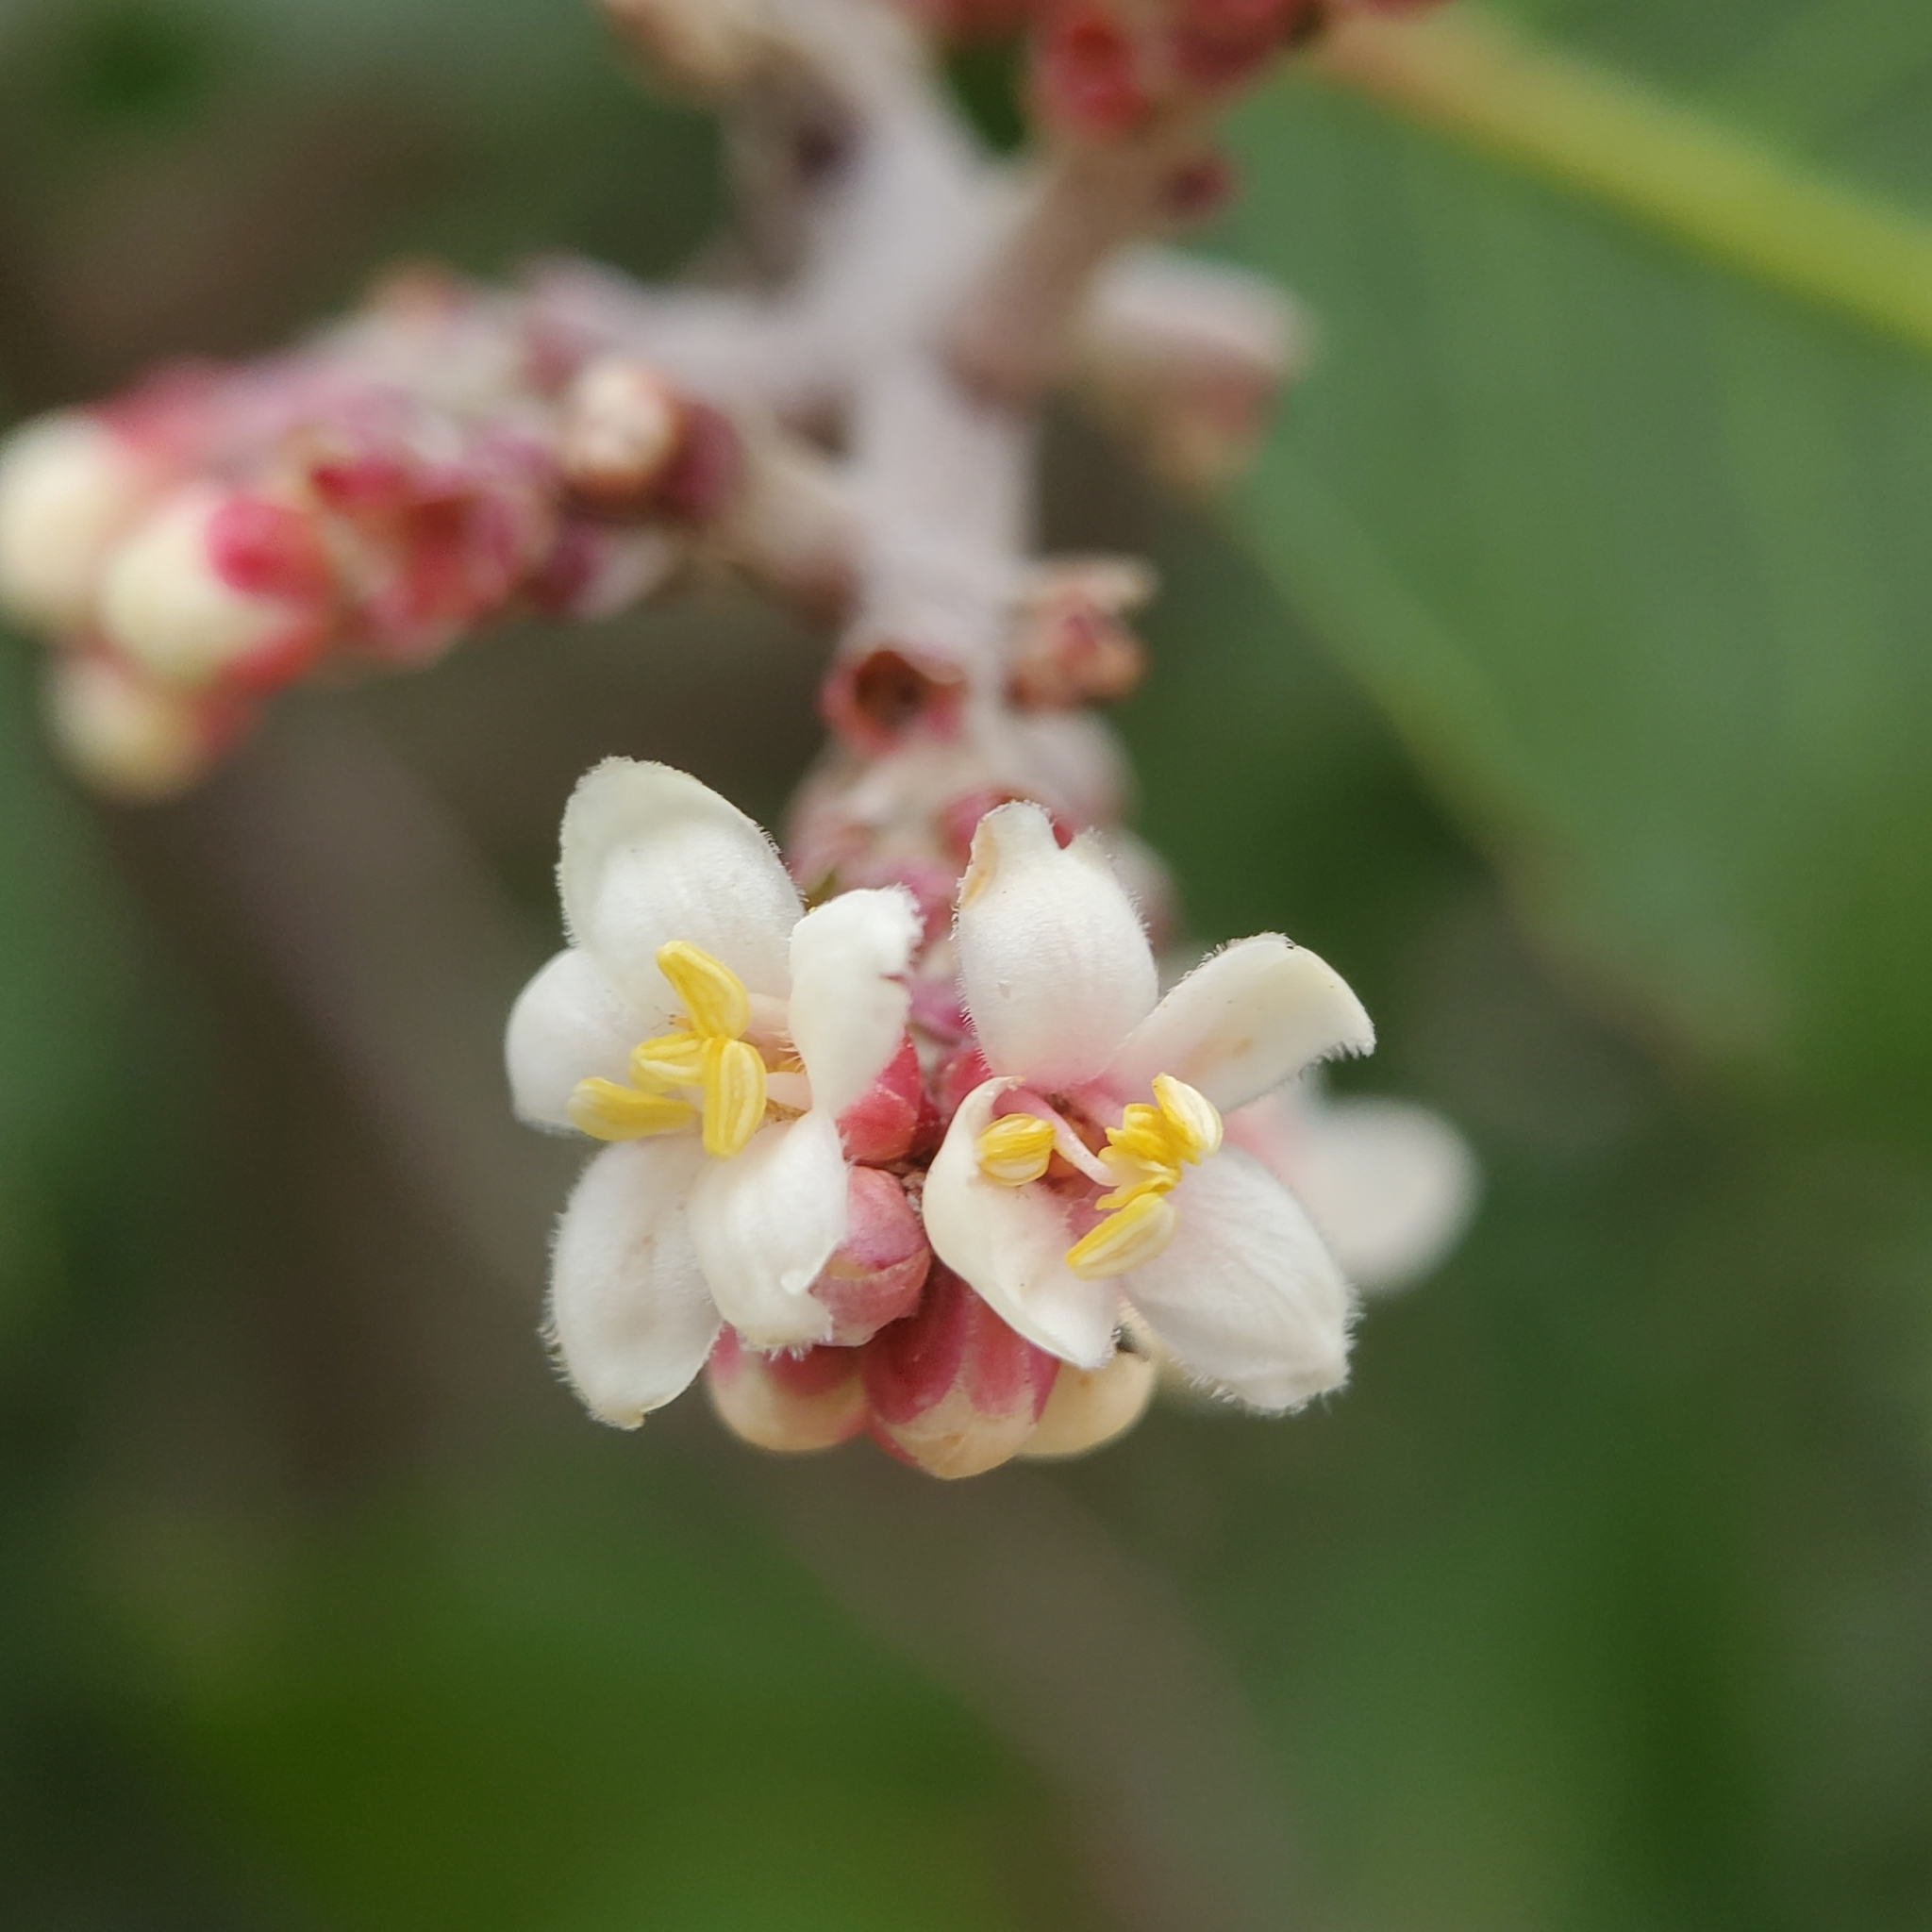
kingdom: Plantae
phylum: Tracheophyta
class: Magnoliopsida
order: Sapindales
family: Anacardiaceae
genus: Rhus
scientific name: Rhus
